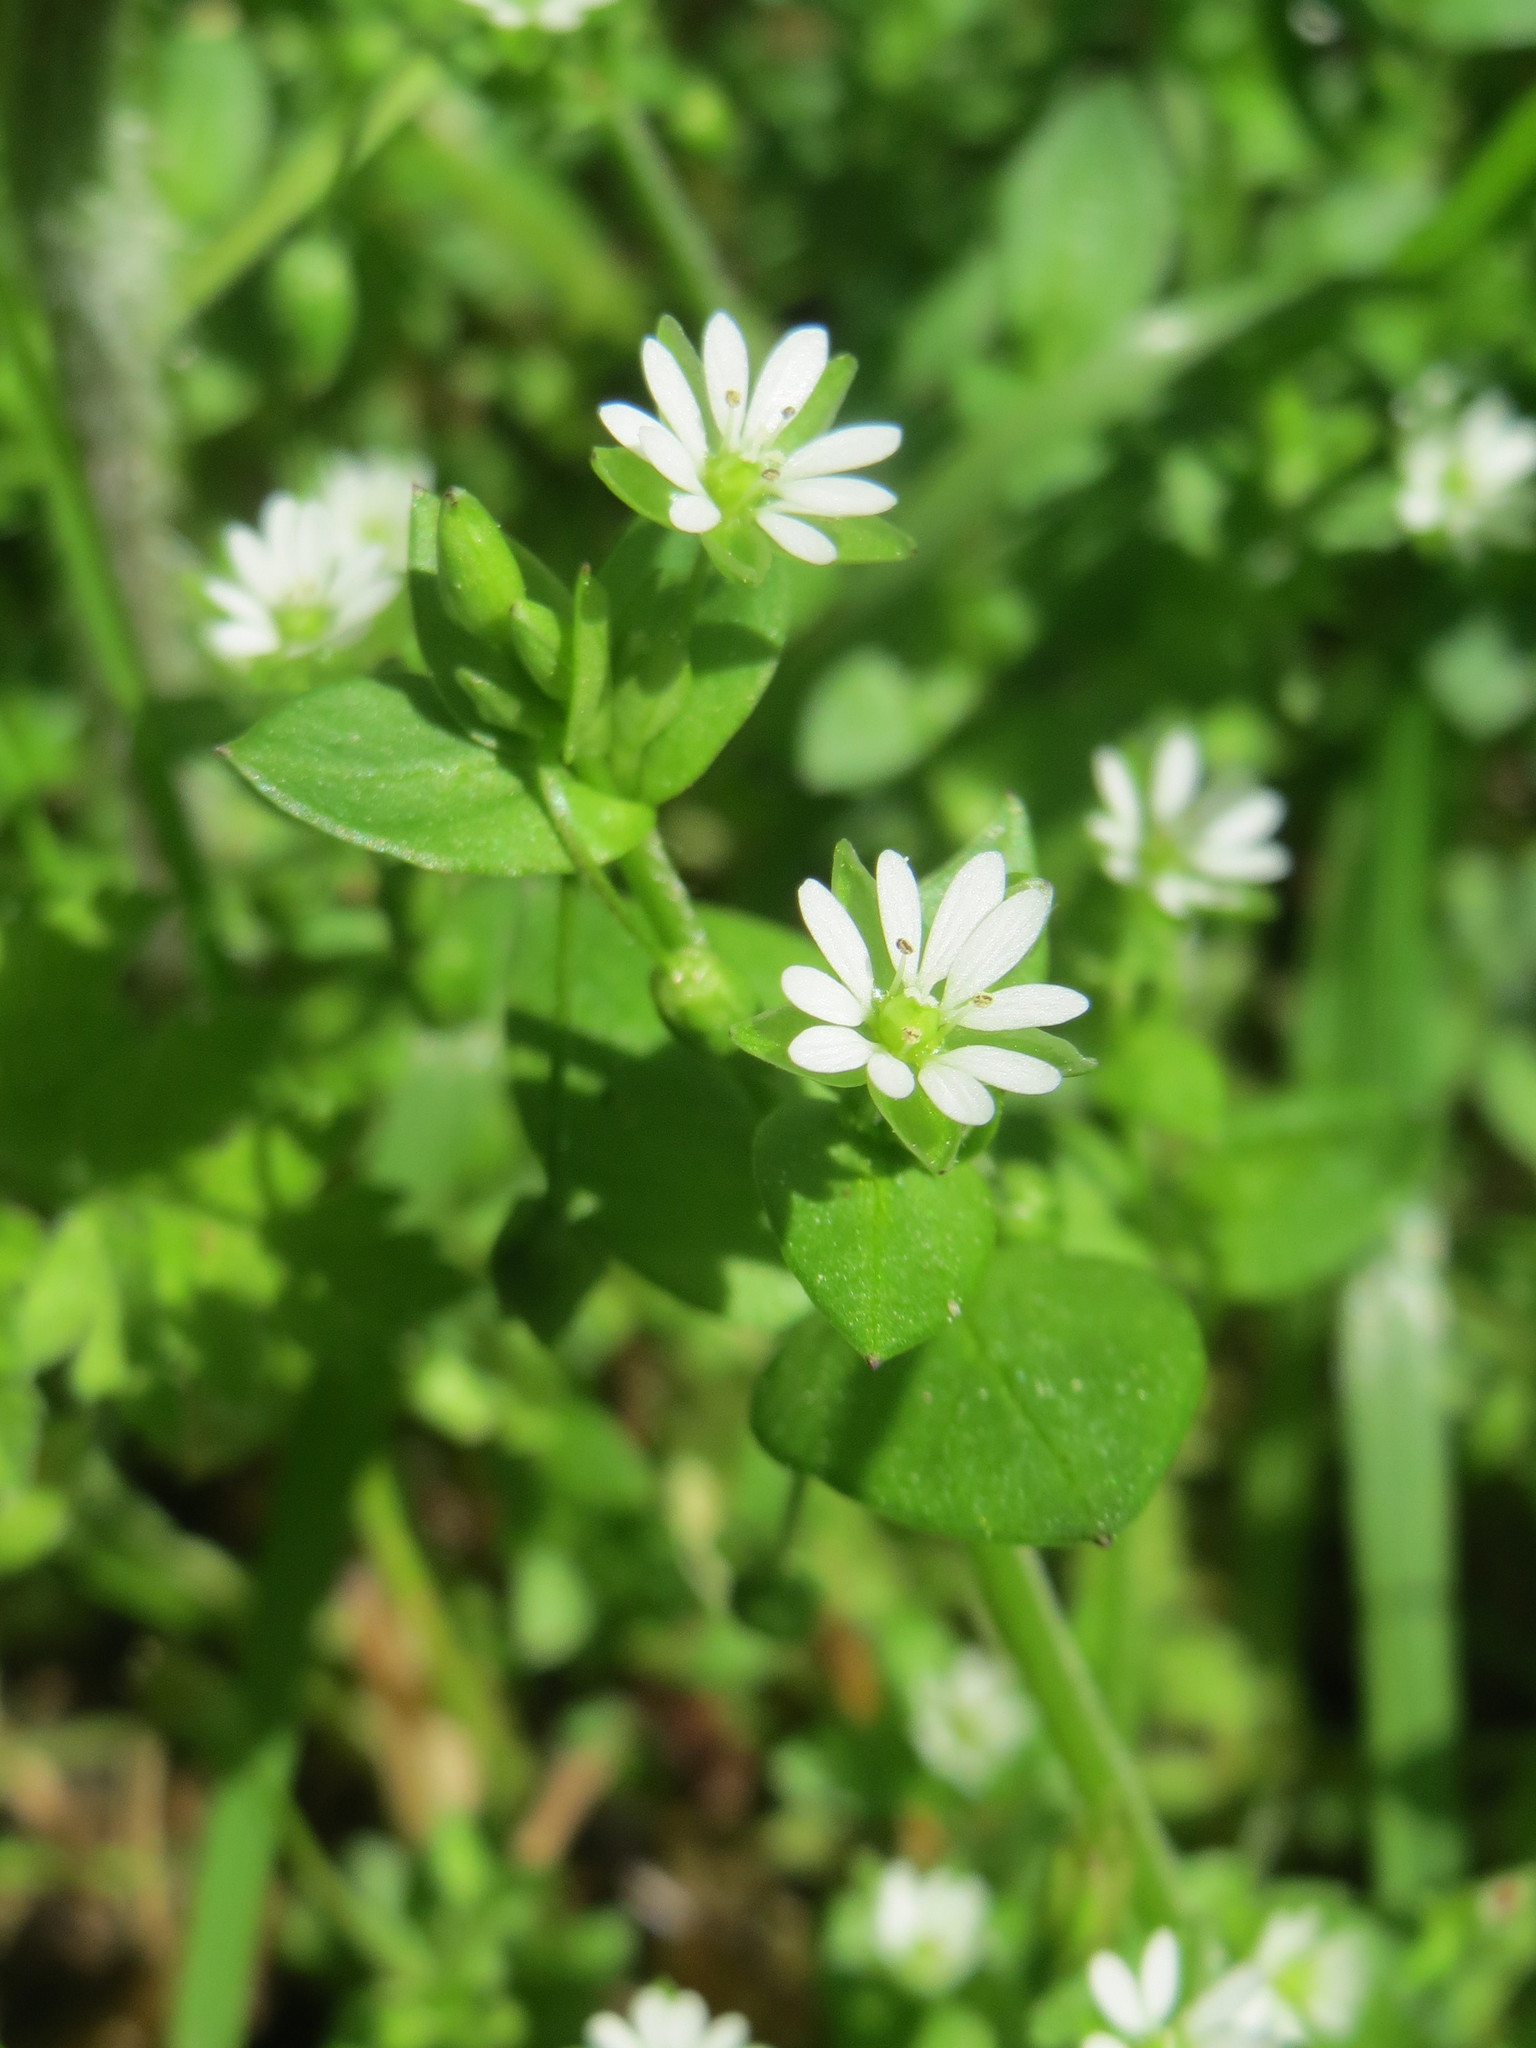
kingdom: Plantae
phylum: Tracheophyta
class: Magnoliopsida
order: Caryophyllales
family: Caryophyllaceae
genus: Stellaria
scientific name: Stellaria media
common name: Common chickweed
